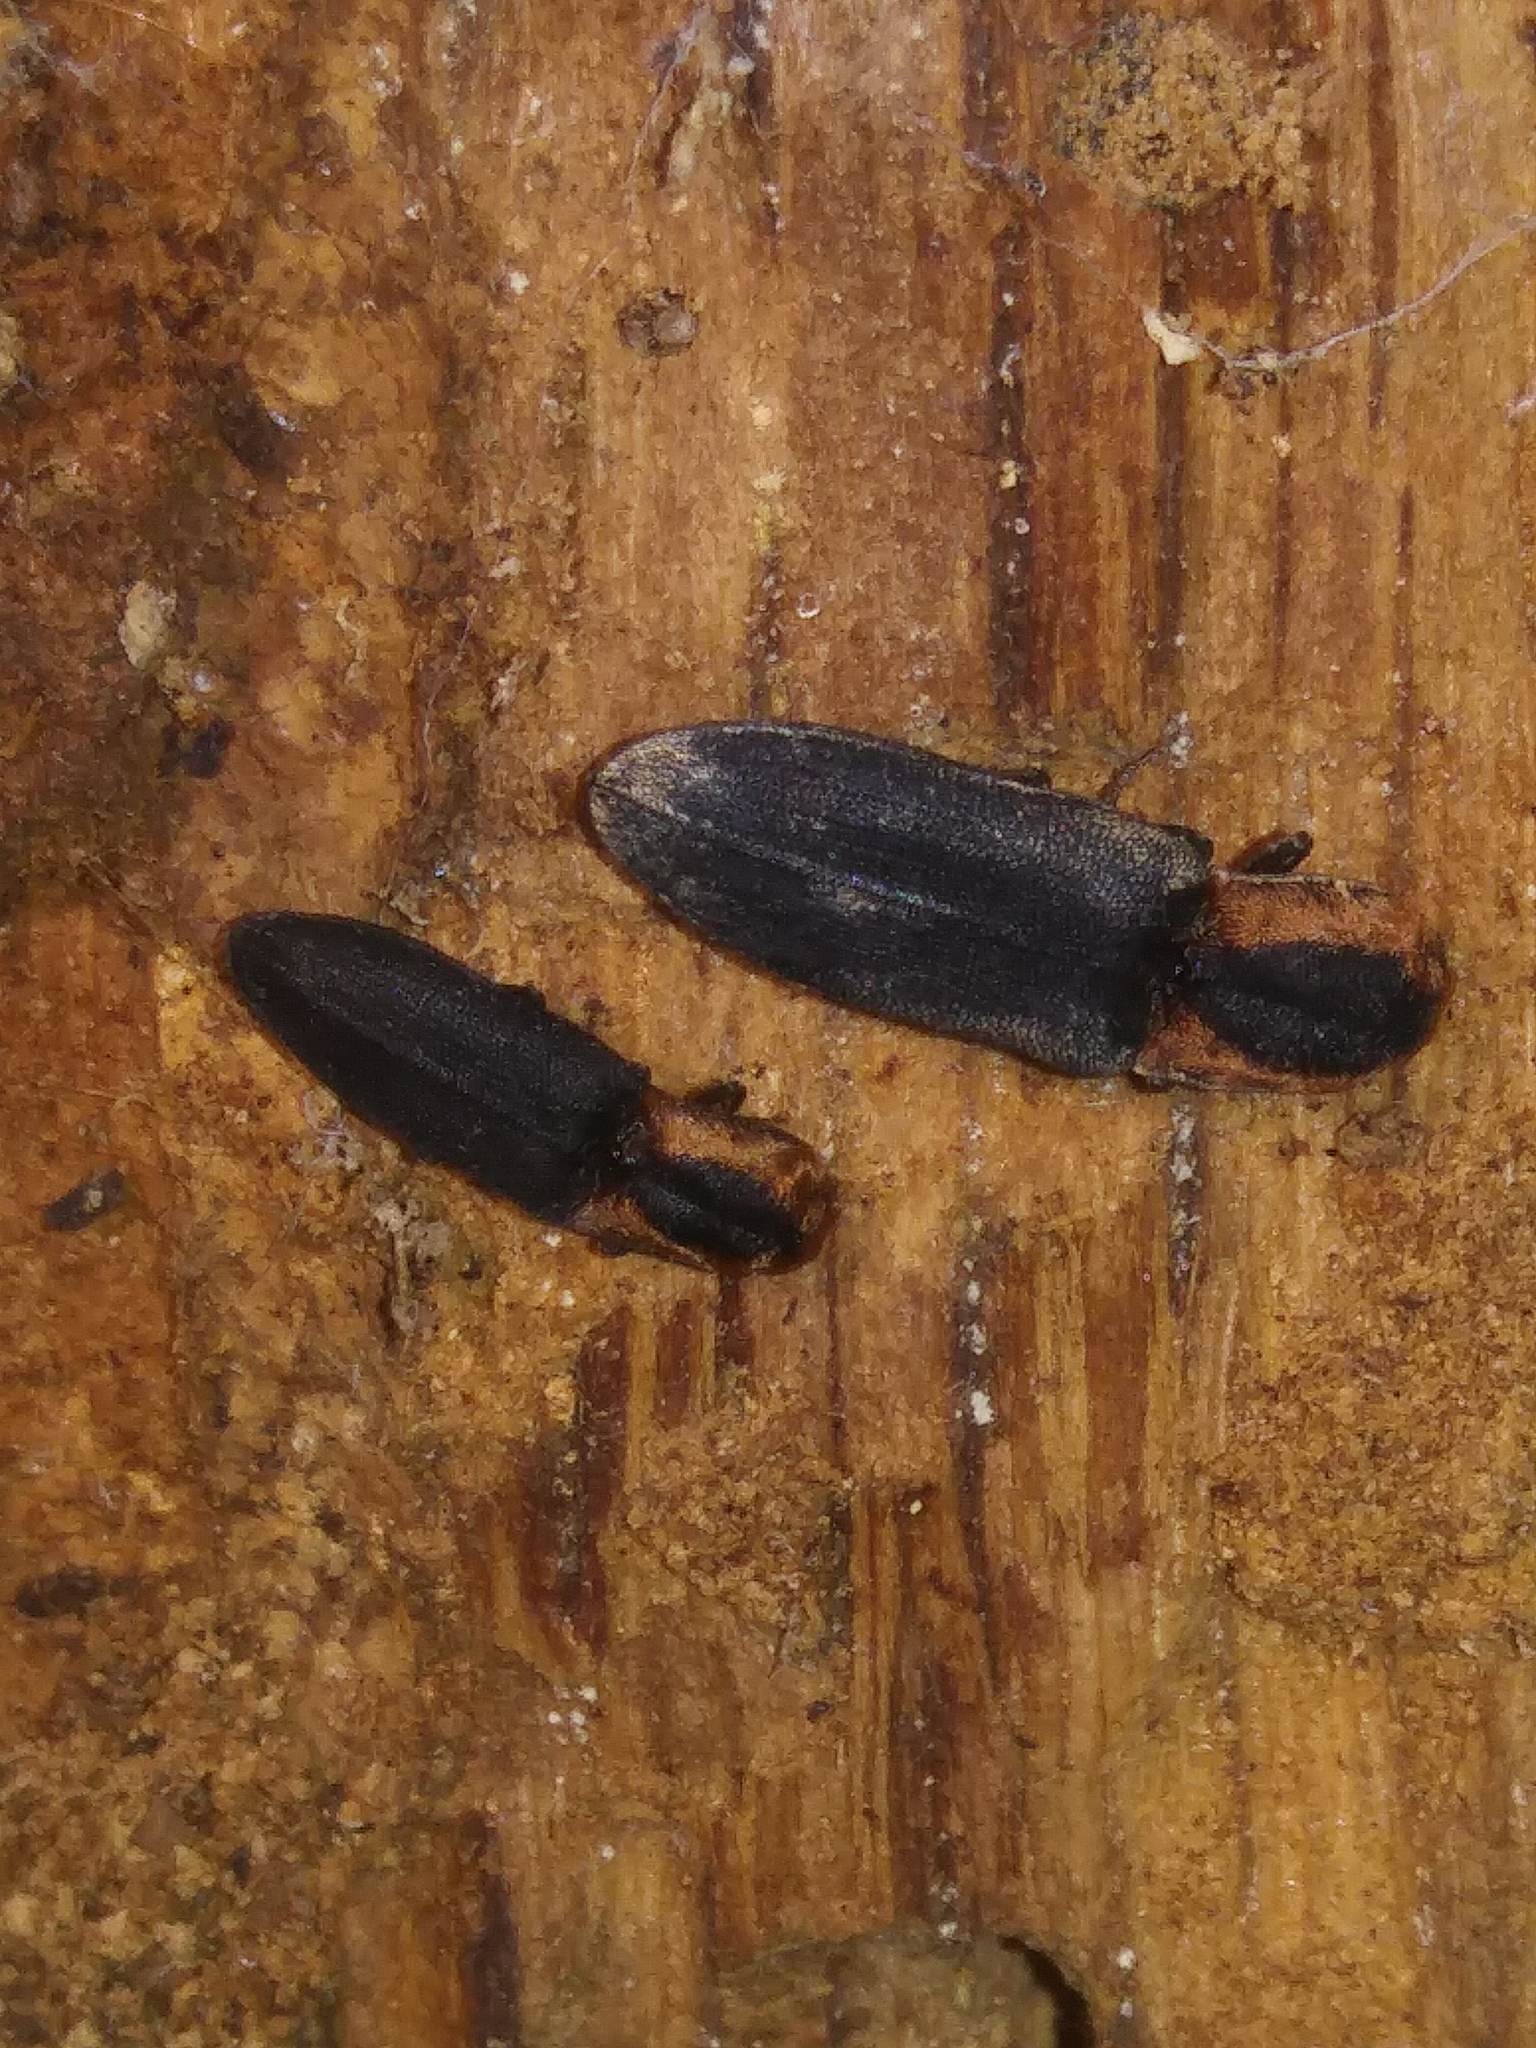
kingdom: Animalia
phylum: Arthropoda
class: Insecta
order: Coleoptera
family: Elateridae
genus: Lacon
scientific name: Lacon discoideus
